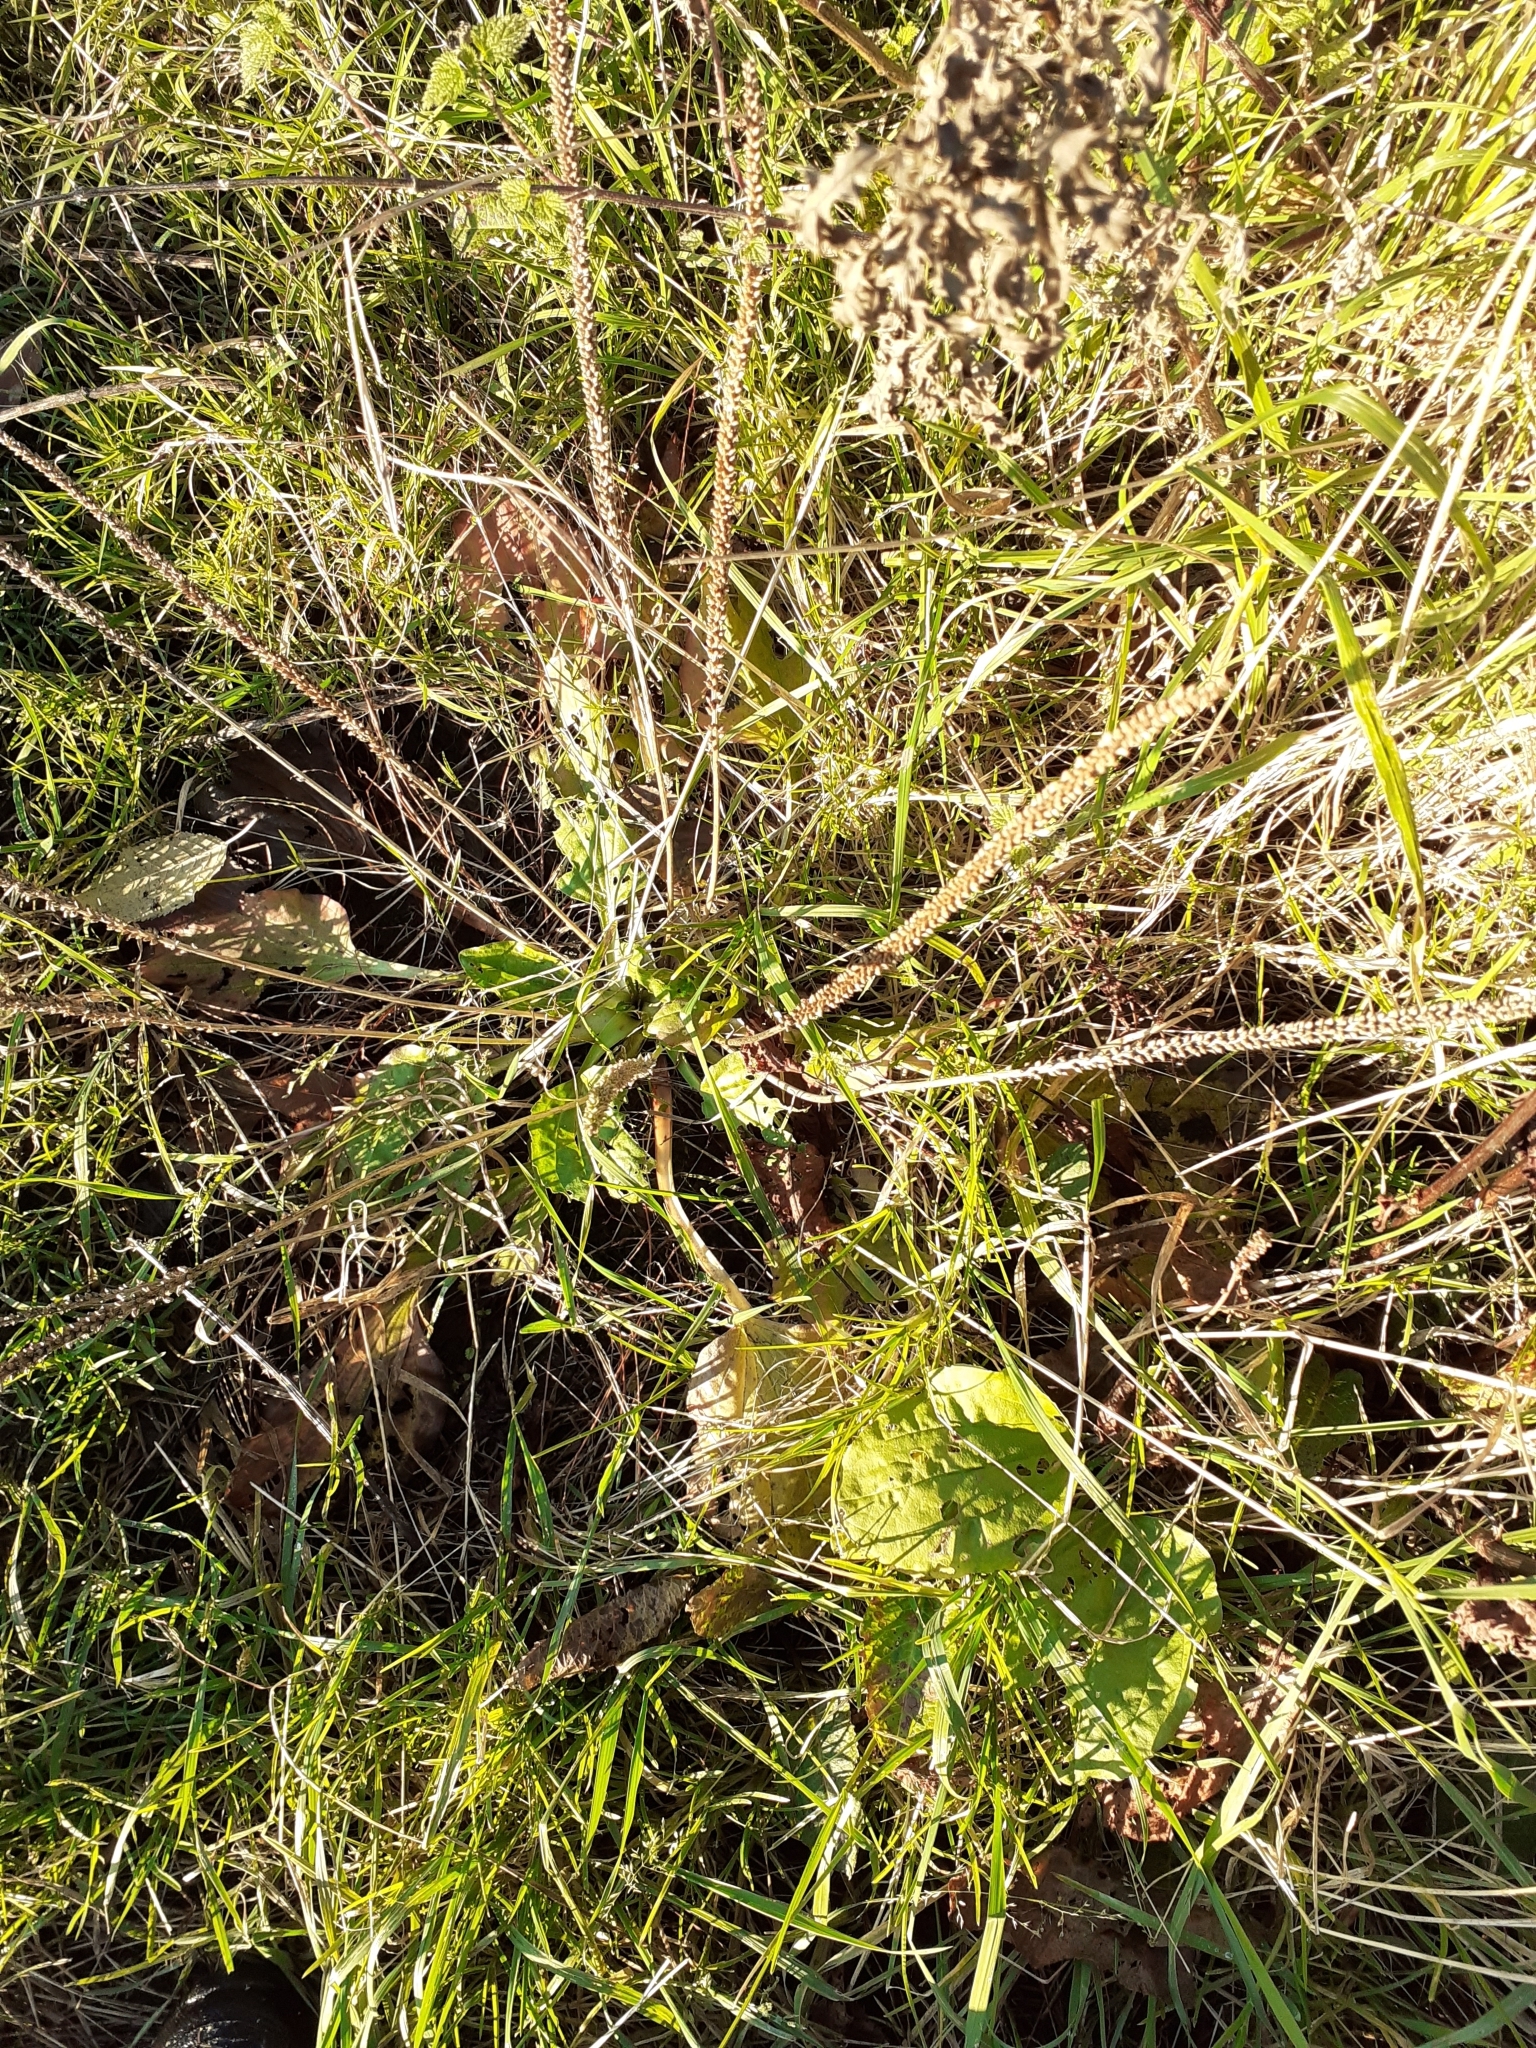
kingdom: Plantae
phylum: Tracheophyta
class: Magnoliopsida
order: Lamiales
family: Plantaginaceae
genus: Plantago
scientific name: Plantago major
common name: Common plantain
